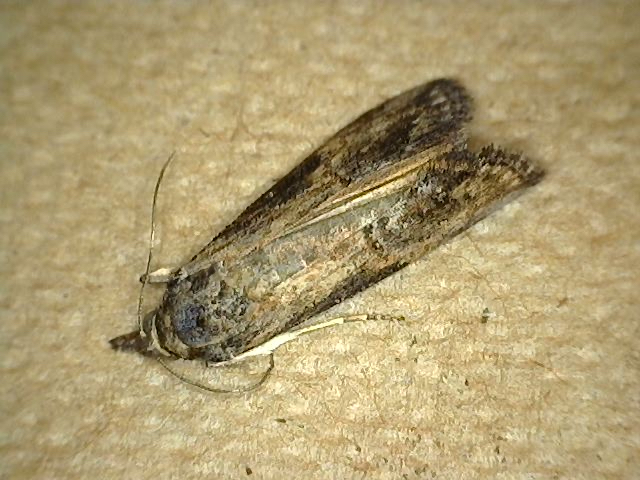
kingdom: Animalia
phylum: Arthropoda
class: Insecta
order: Lepidoptera
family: Erebidae
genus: Hypena
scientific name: Hypena scabra
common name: Green cloverworm
